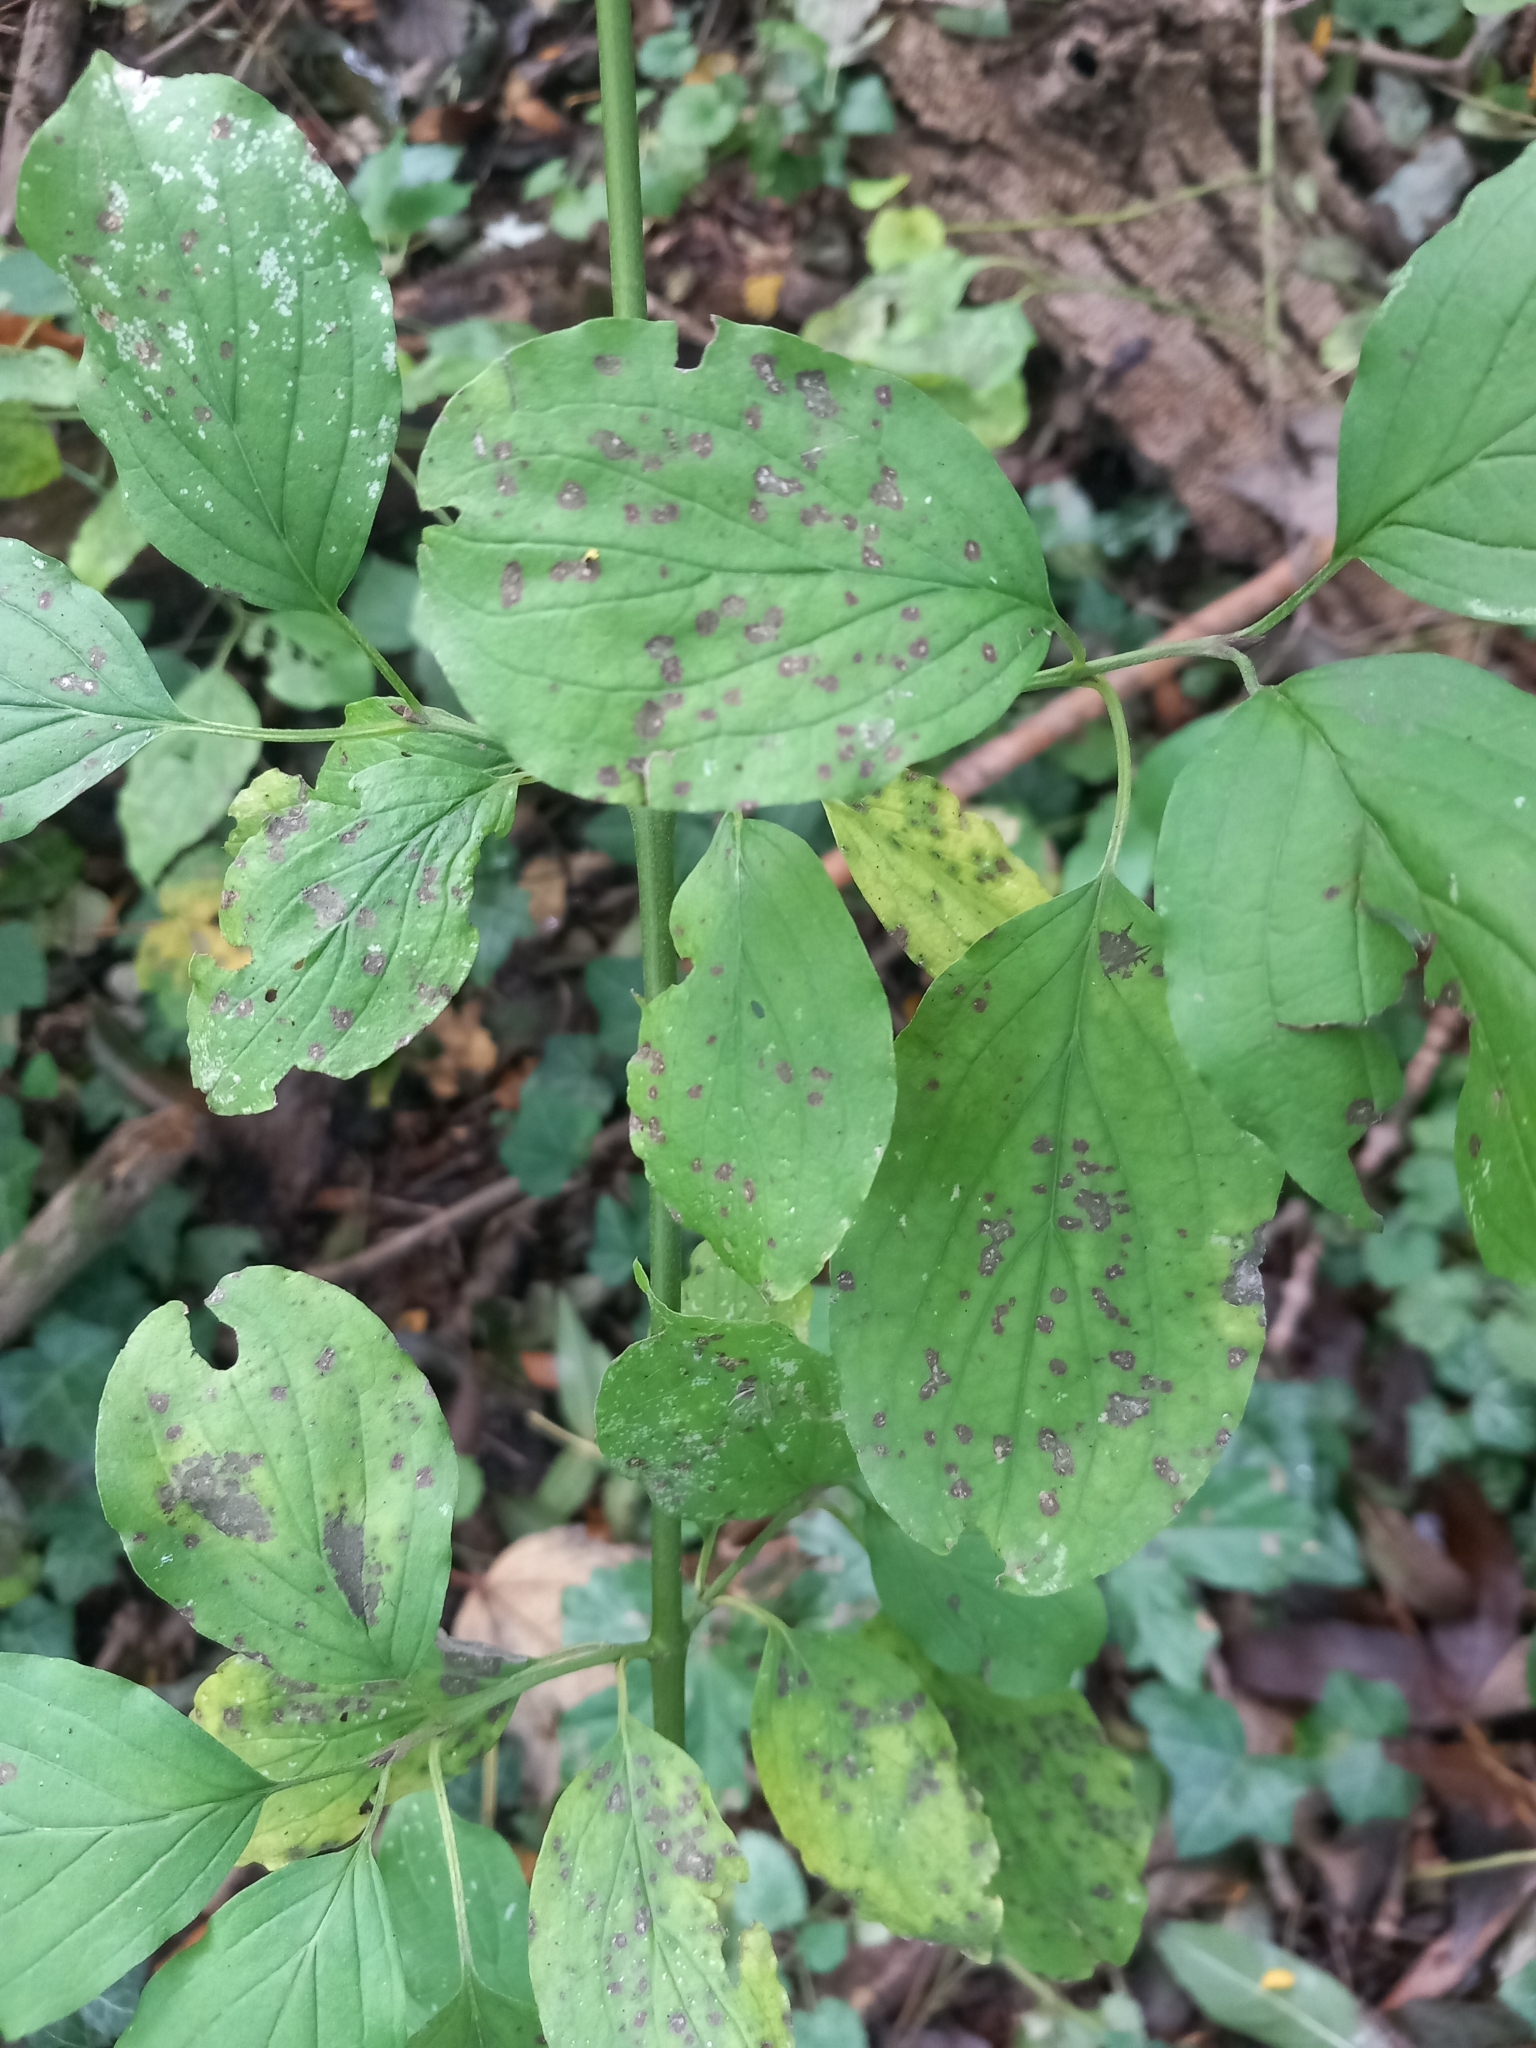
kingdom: Plantae
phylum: Tracheophyta
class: Magnoliopsida
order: Cornales
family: Cornaceae
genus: Cornus
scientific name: Cornus sanguinea
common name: Dogwood
